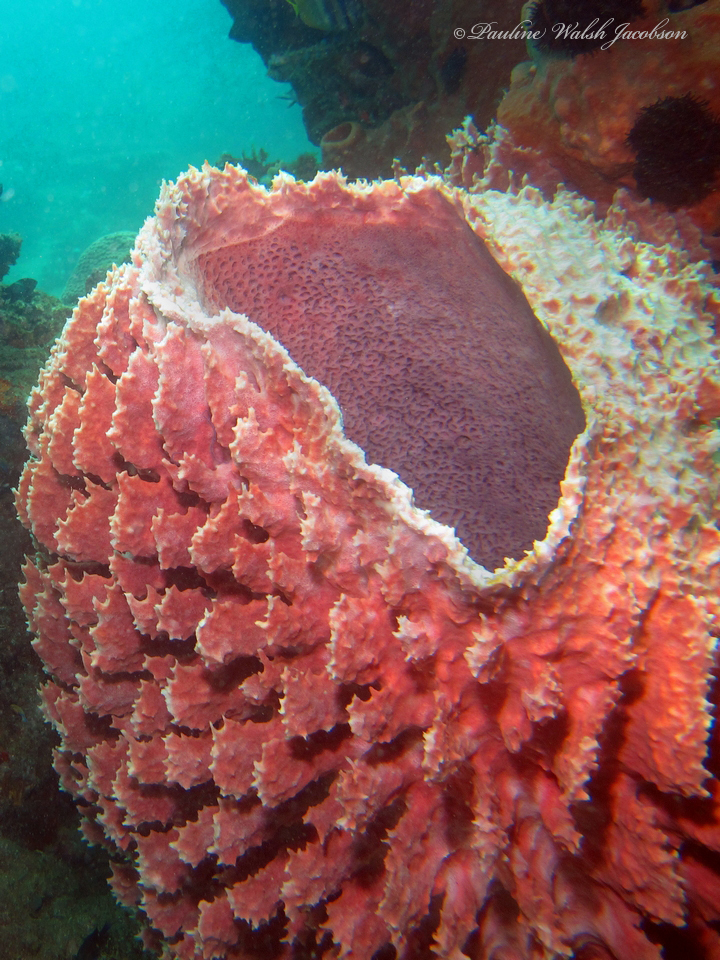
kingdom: Animalia
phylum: Porifera
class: Demospongiae
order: Haplosclerida
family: Petrosiidae
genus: Xestospongia
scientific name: Xestospongia testudinaria
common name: Barrel sponge
